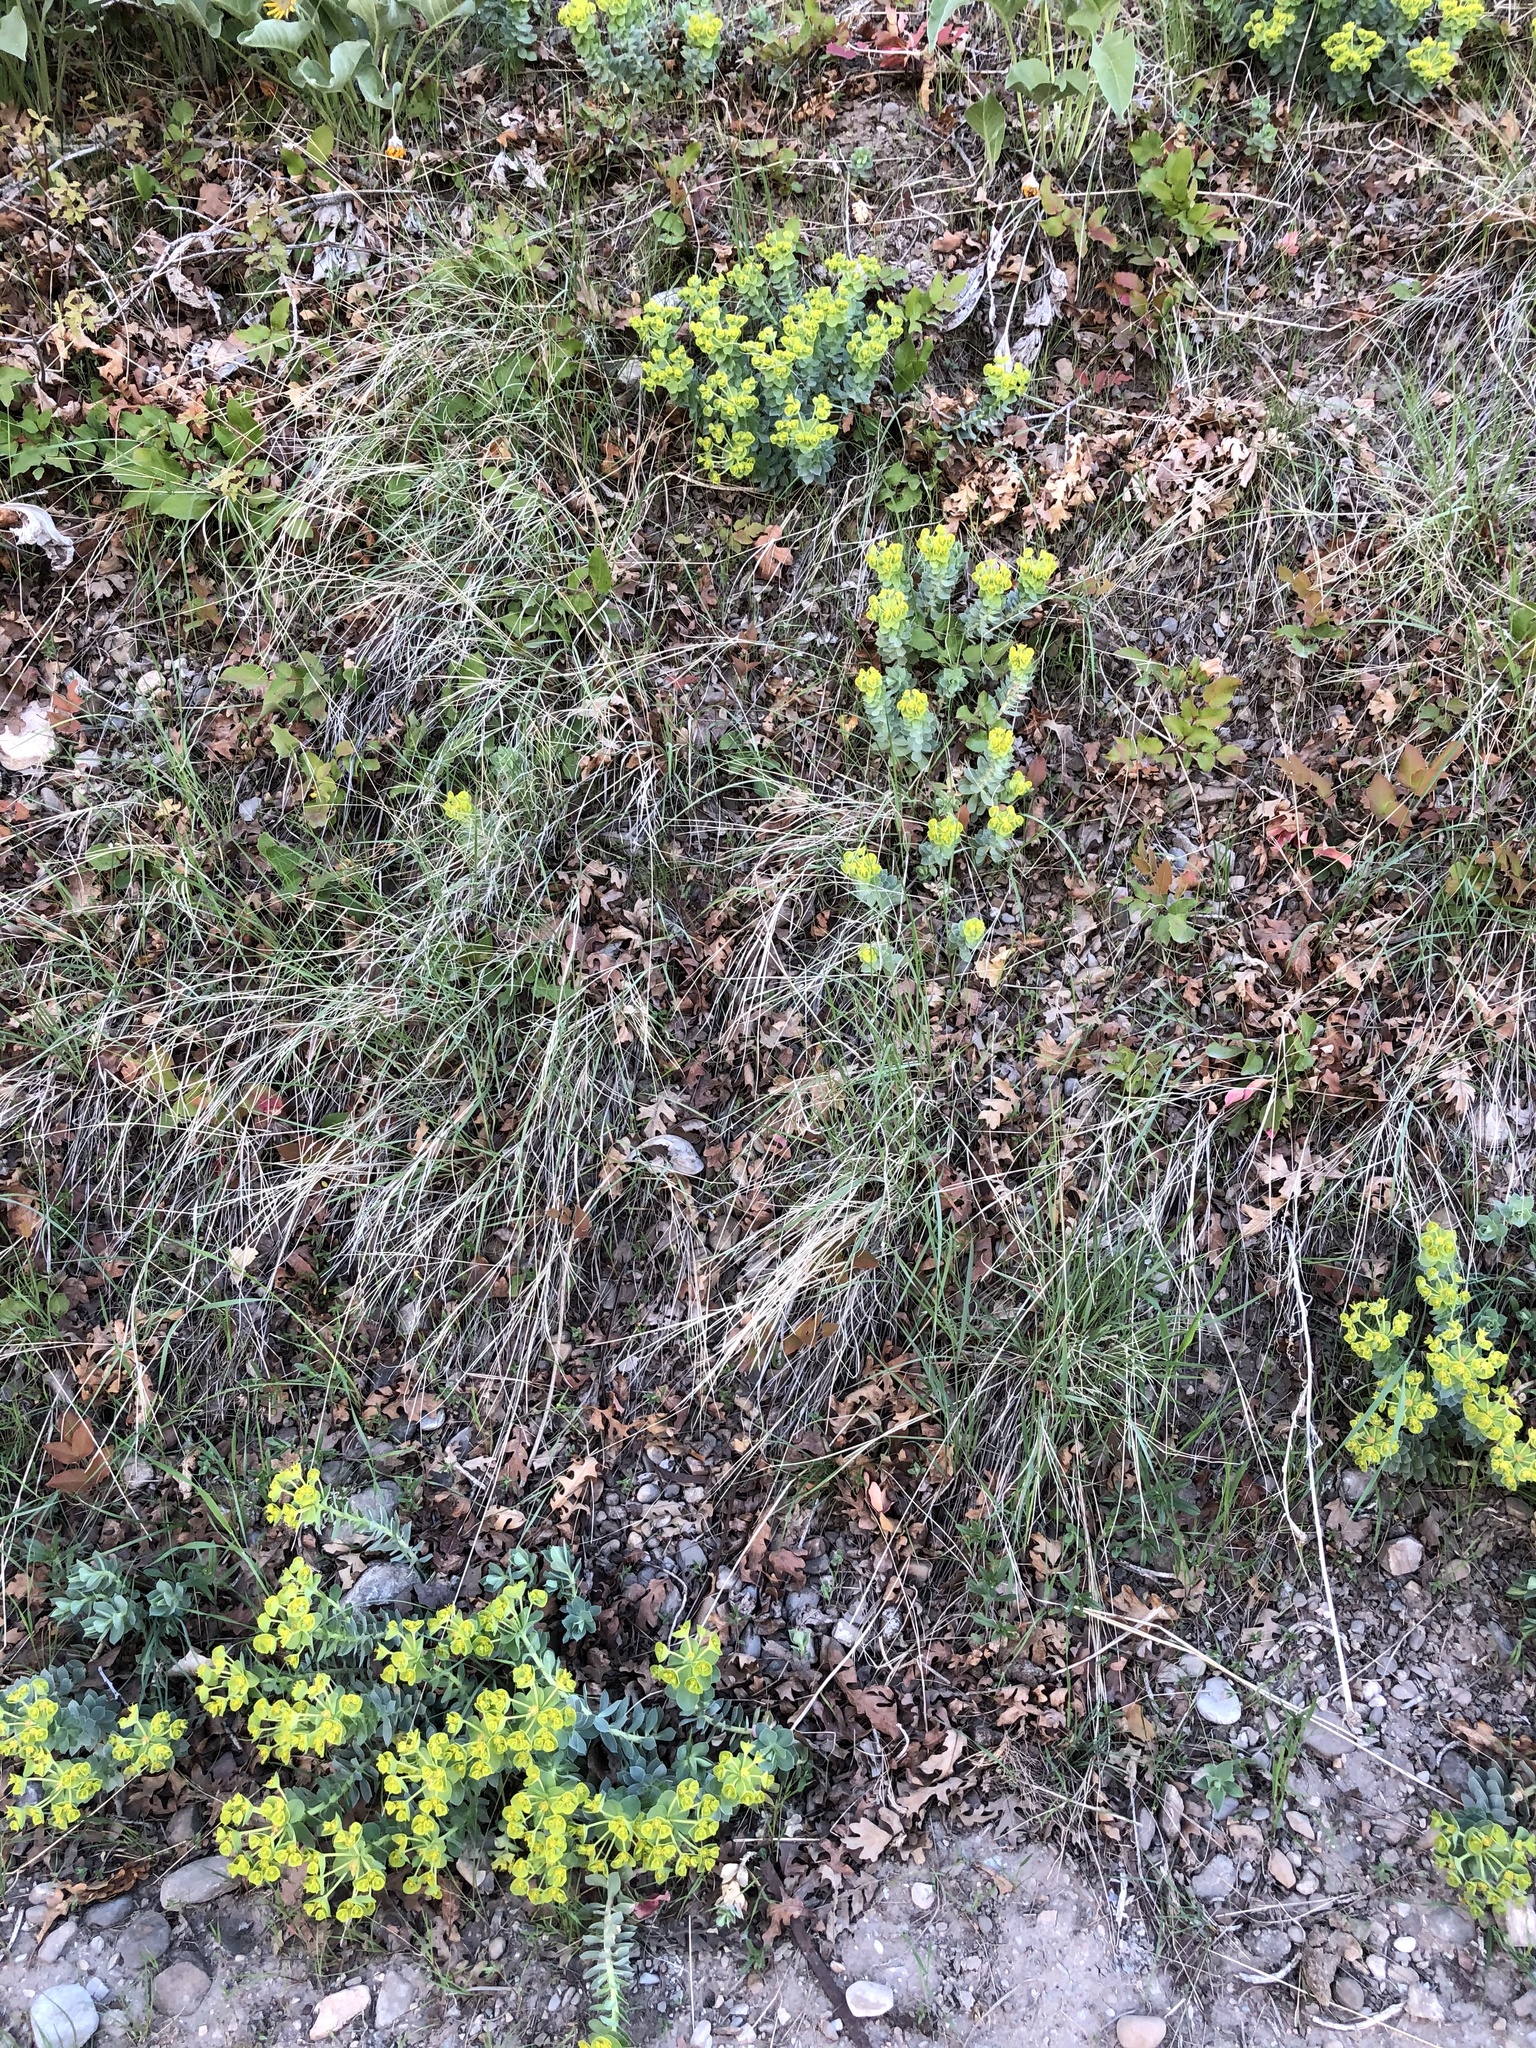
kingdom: Plantae
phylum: Tracheophyta
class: Magnoliopsida
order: Malpighiales
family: Euphorbiaceae
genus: Euphorbia
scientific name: Euphorbia myrsinites
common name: Myrtle spurge
